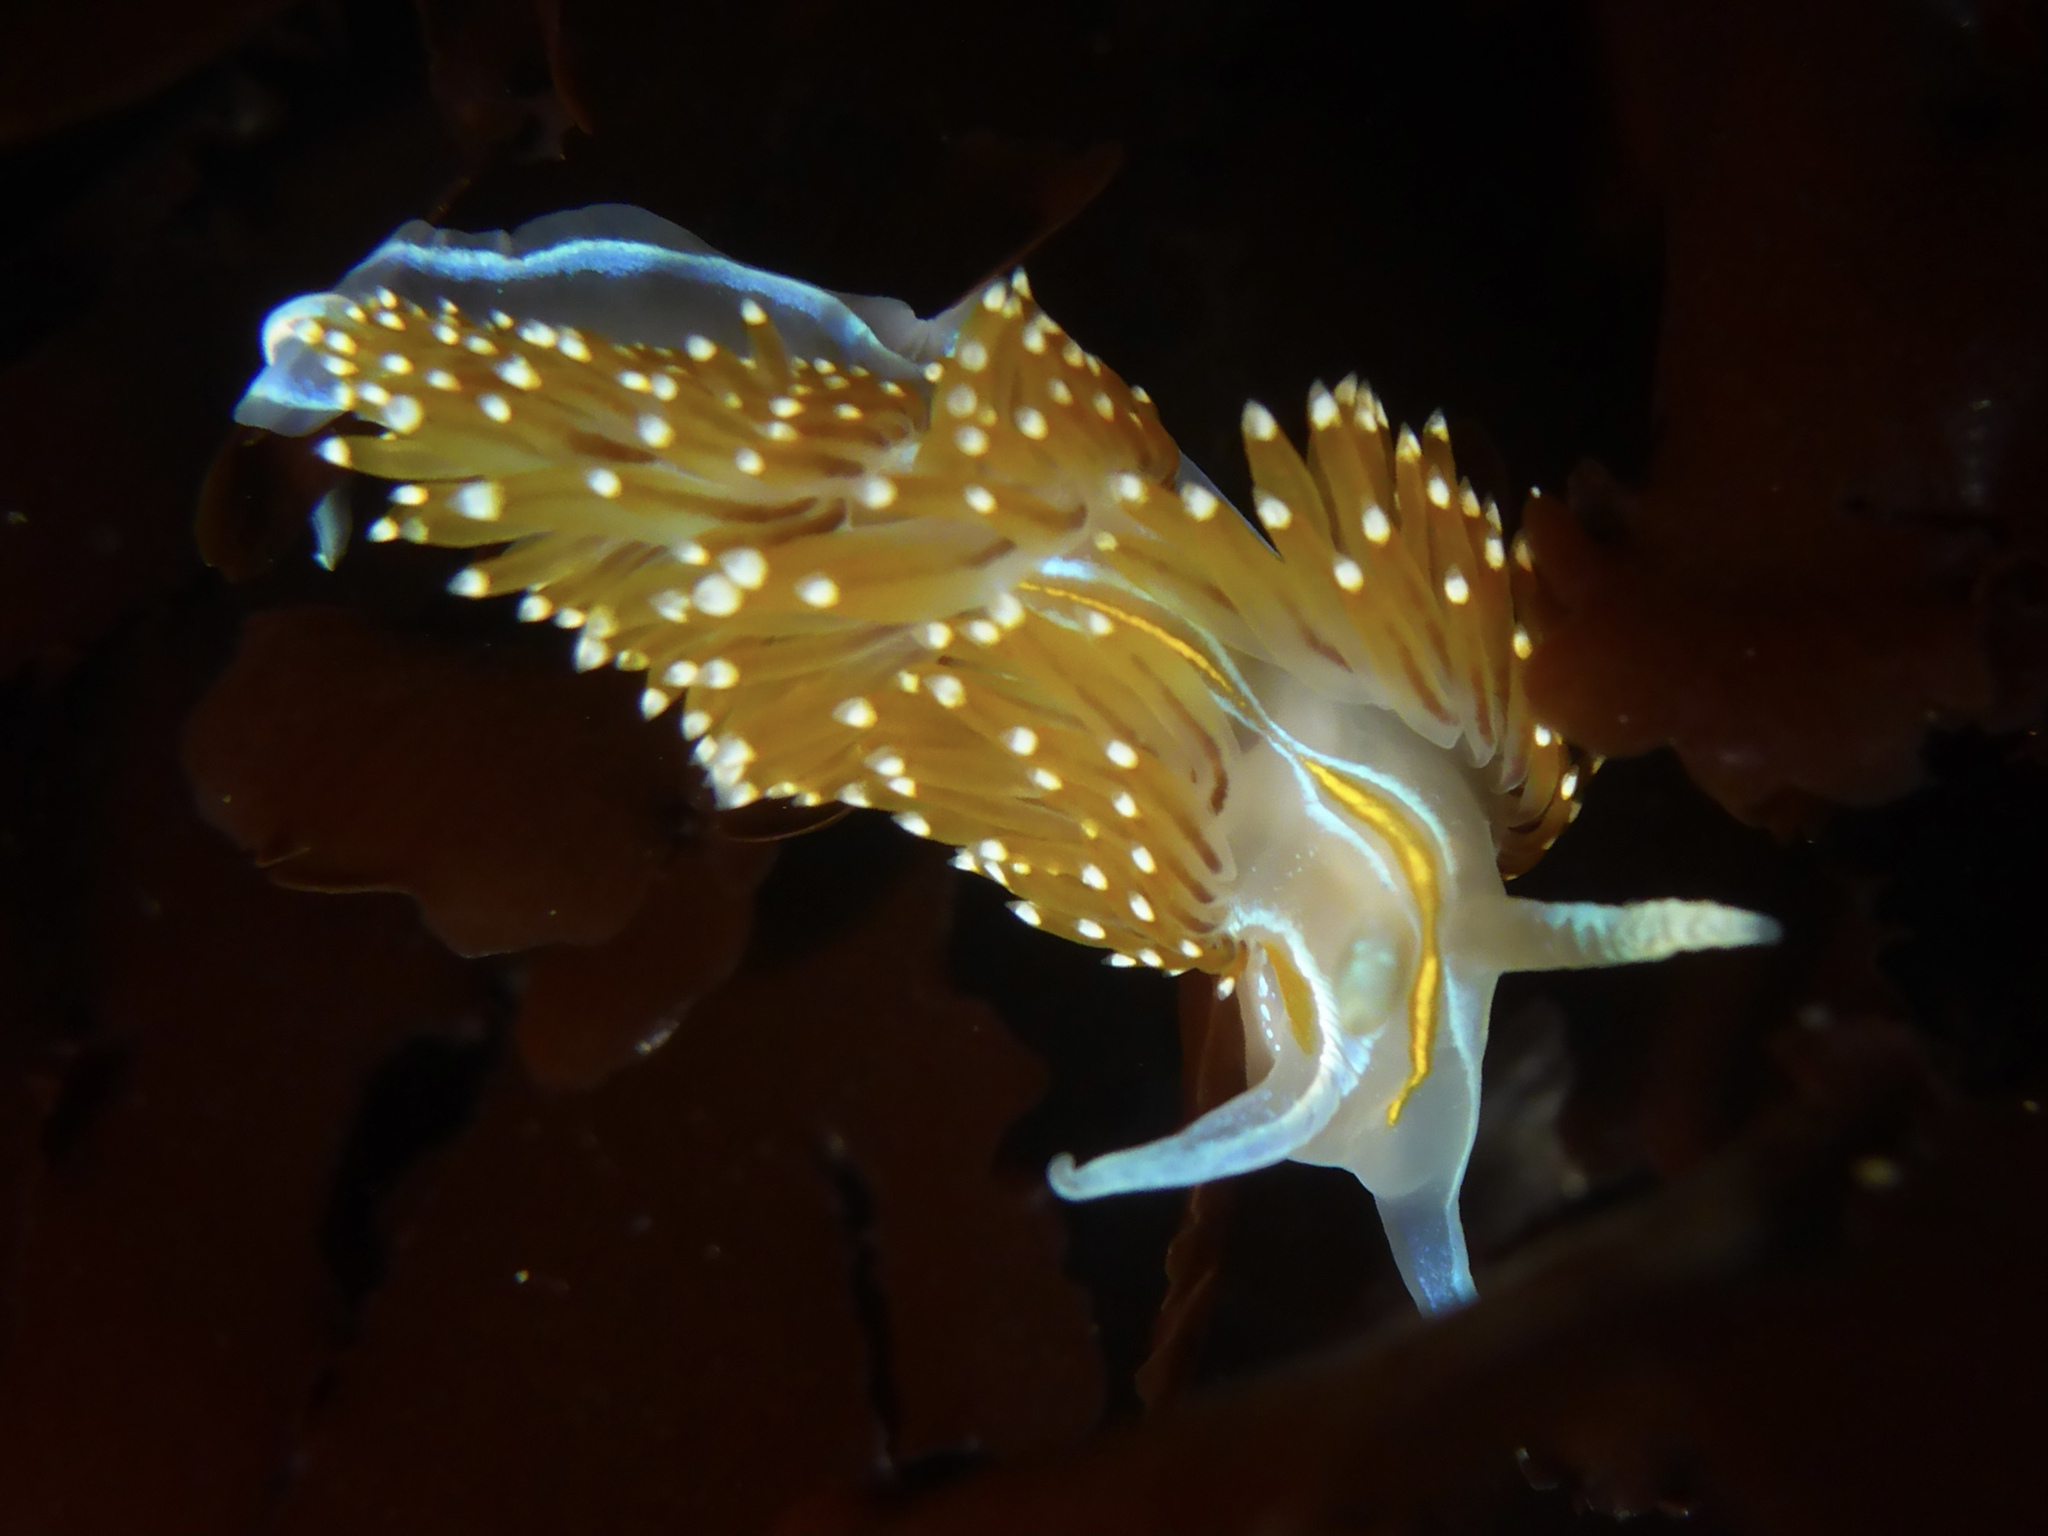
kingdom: Animalia
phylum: Mollusca
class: Gastropoda
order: Nudibranchia
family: Myrrhinidae
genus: Hermissenda
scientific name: Hermissenda opalescens
